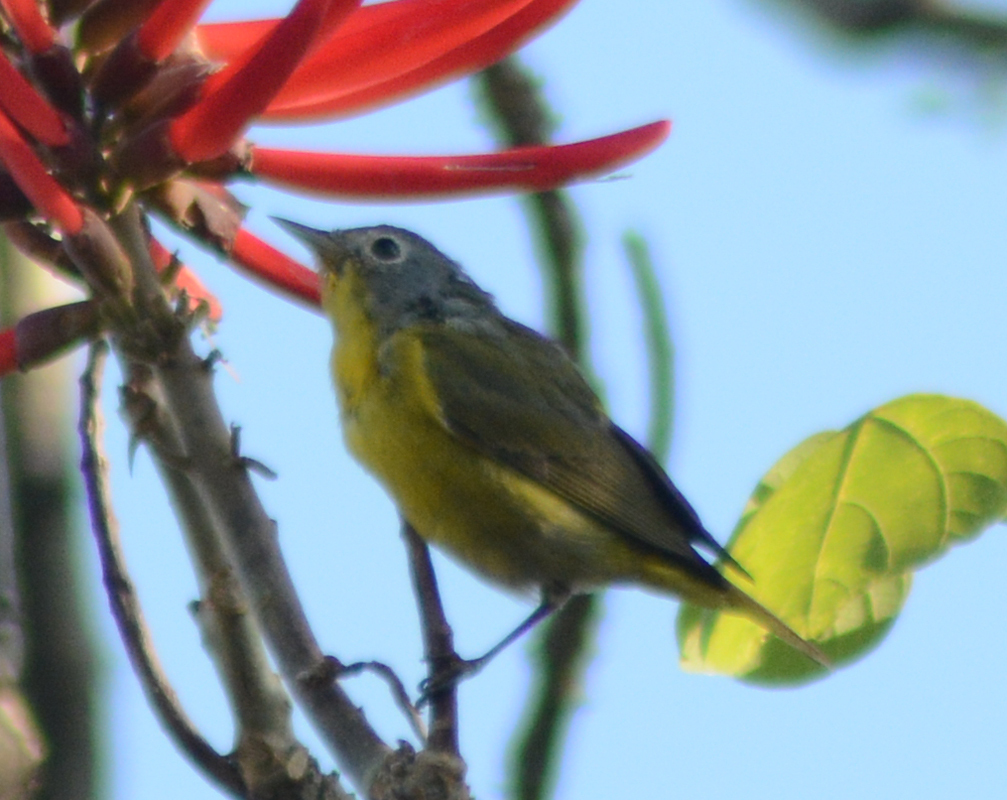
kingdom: Animalia
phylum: Chordata
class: Aves
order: Passeriformes
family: Parulidae
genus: Leiothlypis
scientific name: Leiothlypis ruficapilla
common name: Nashville warbler
